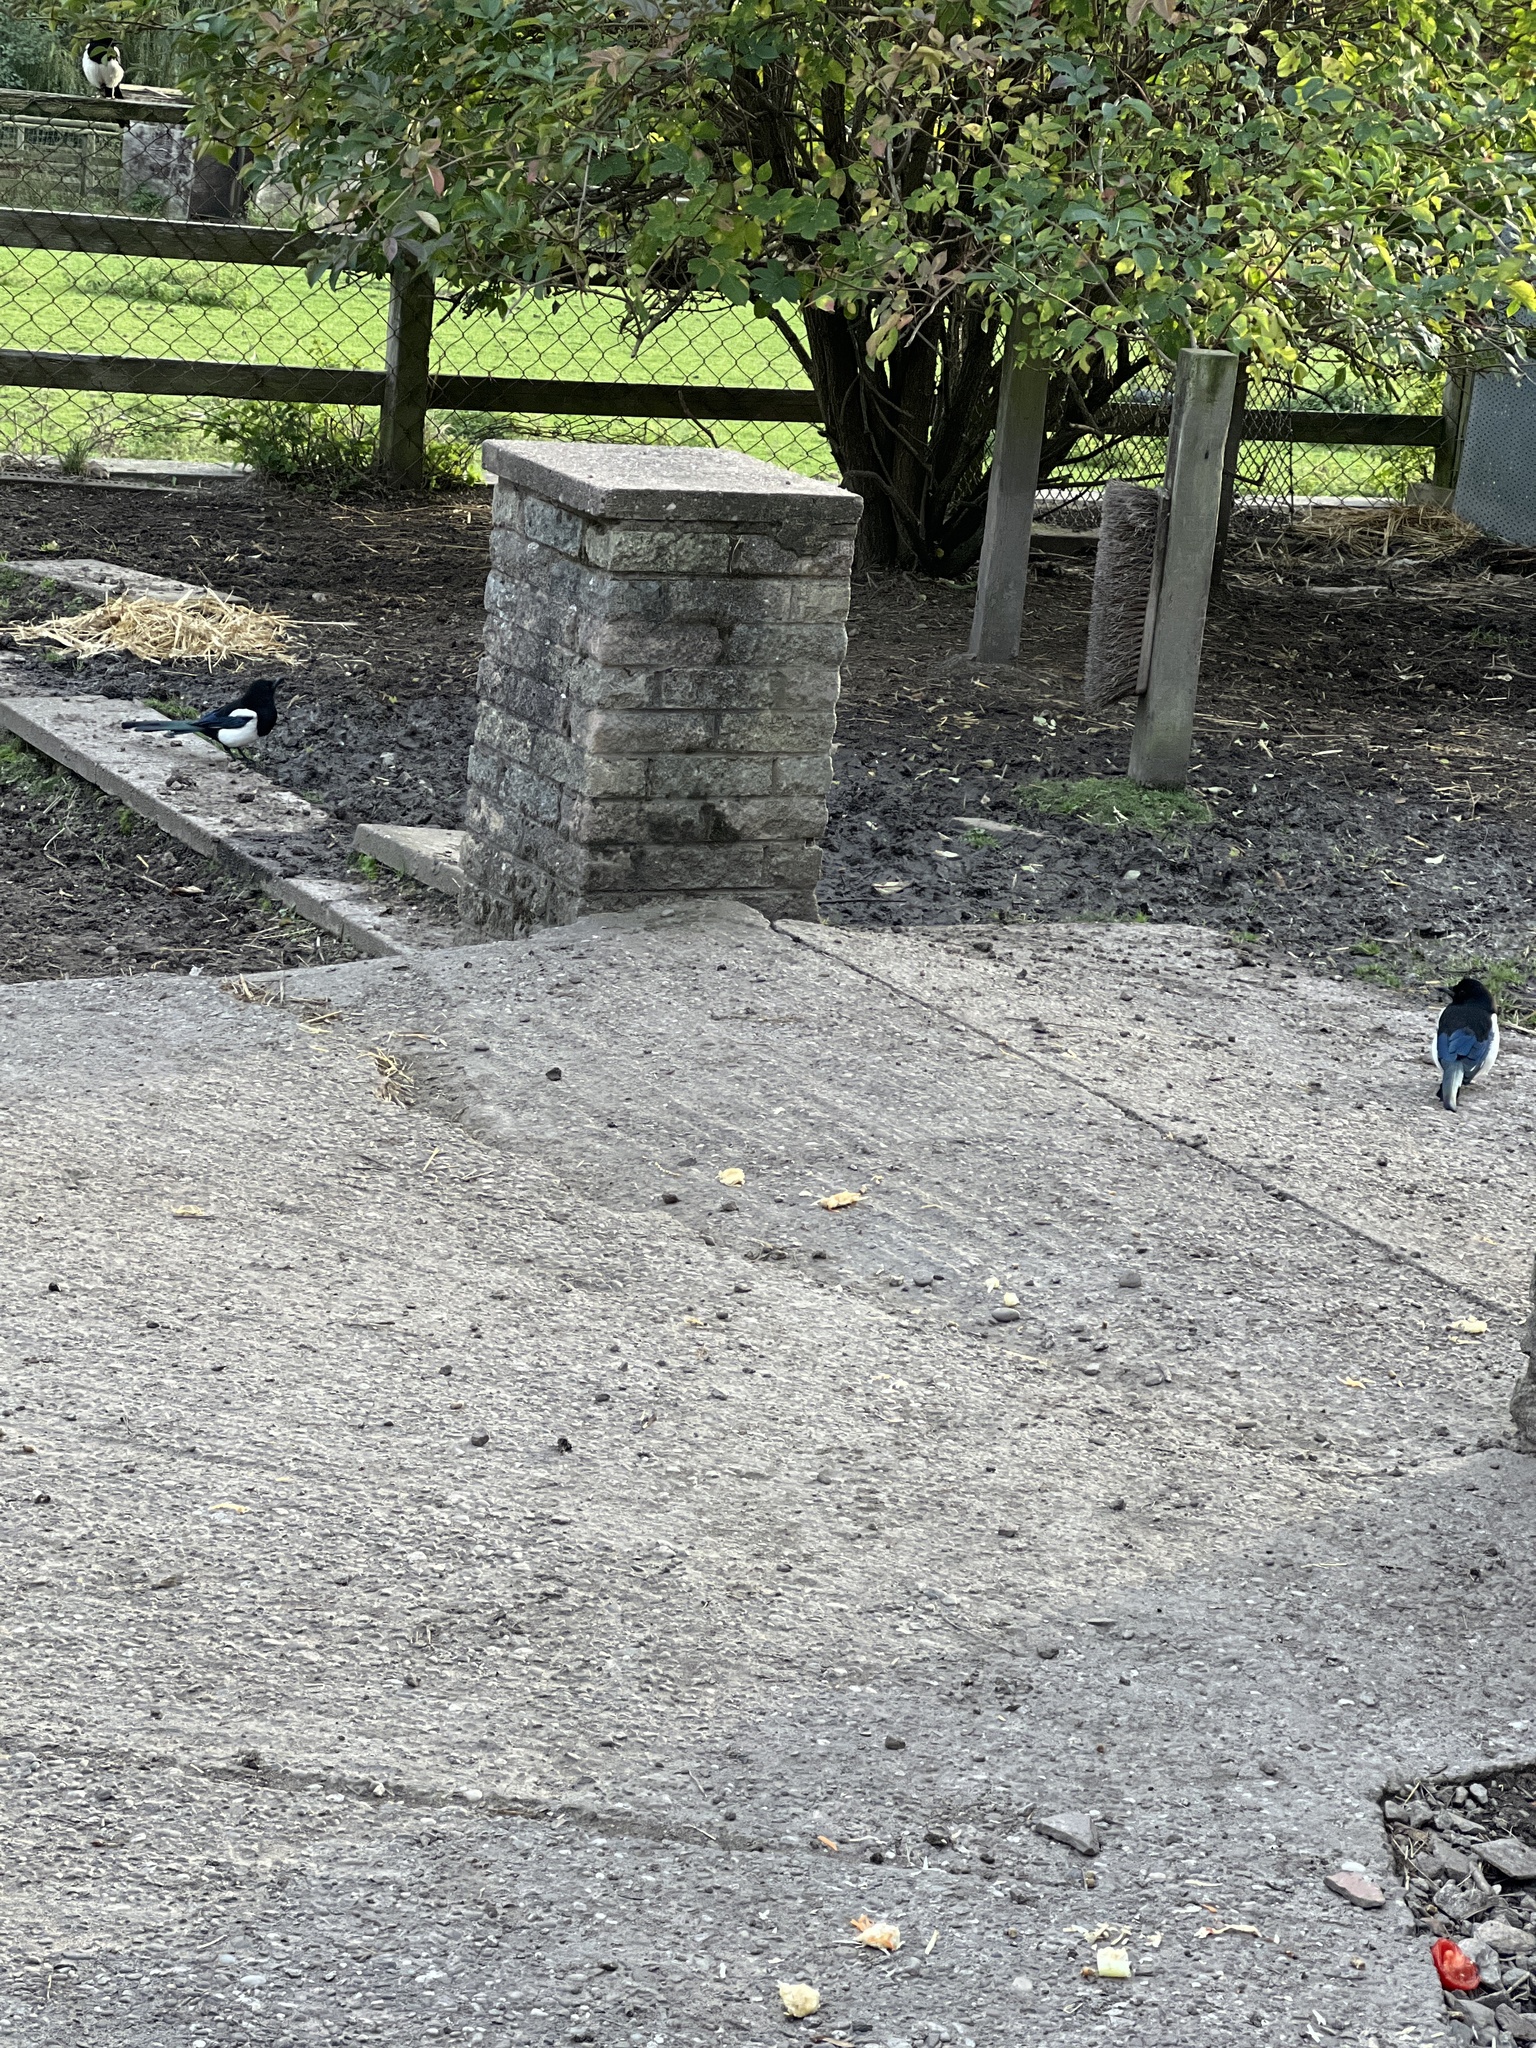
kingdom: Animalia
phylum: Chordata
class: Aves
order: Passeriformes
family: Corvidae
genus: Pica
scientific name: Pica pica
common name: Eurasian magpie
